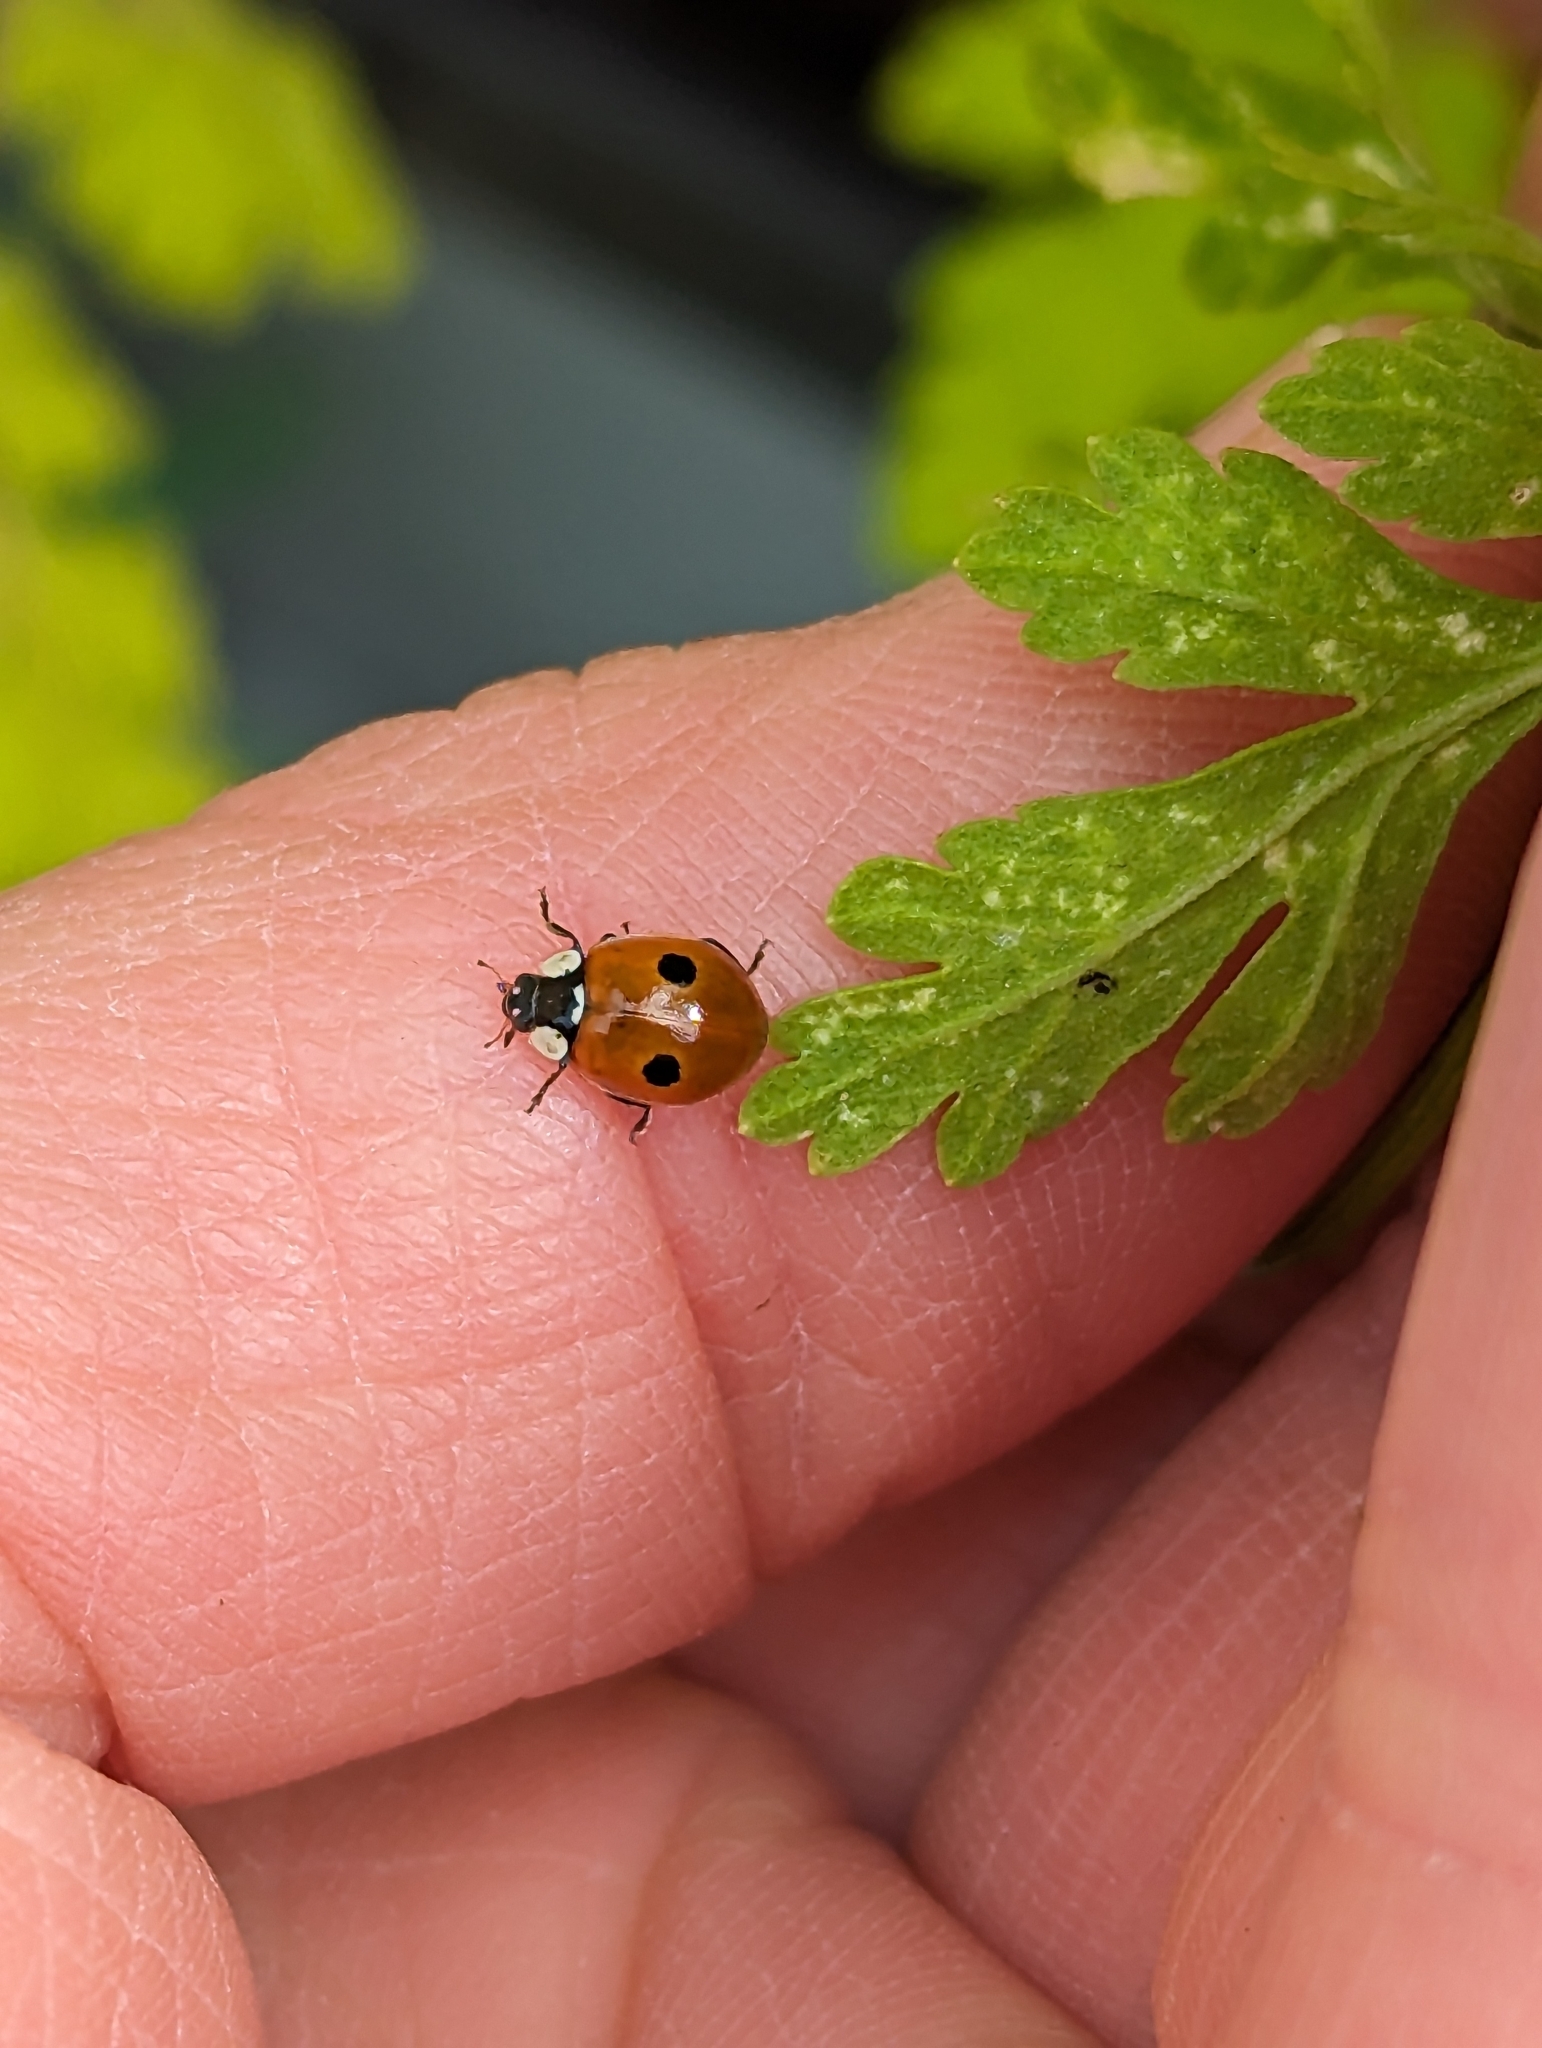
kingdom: Animalia
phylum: Arthropoda
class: Insecta
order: Coleoptera
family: Coccinellidae
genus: Adalia
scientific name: Adalia bipunctata
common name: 2-spot ladybird
